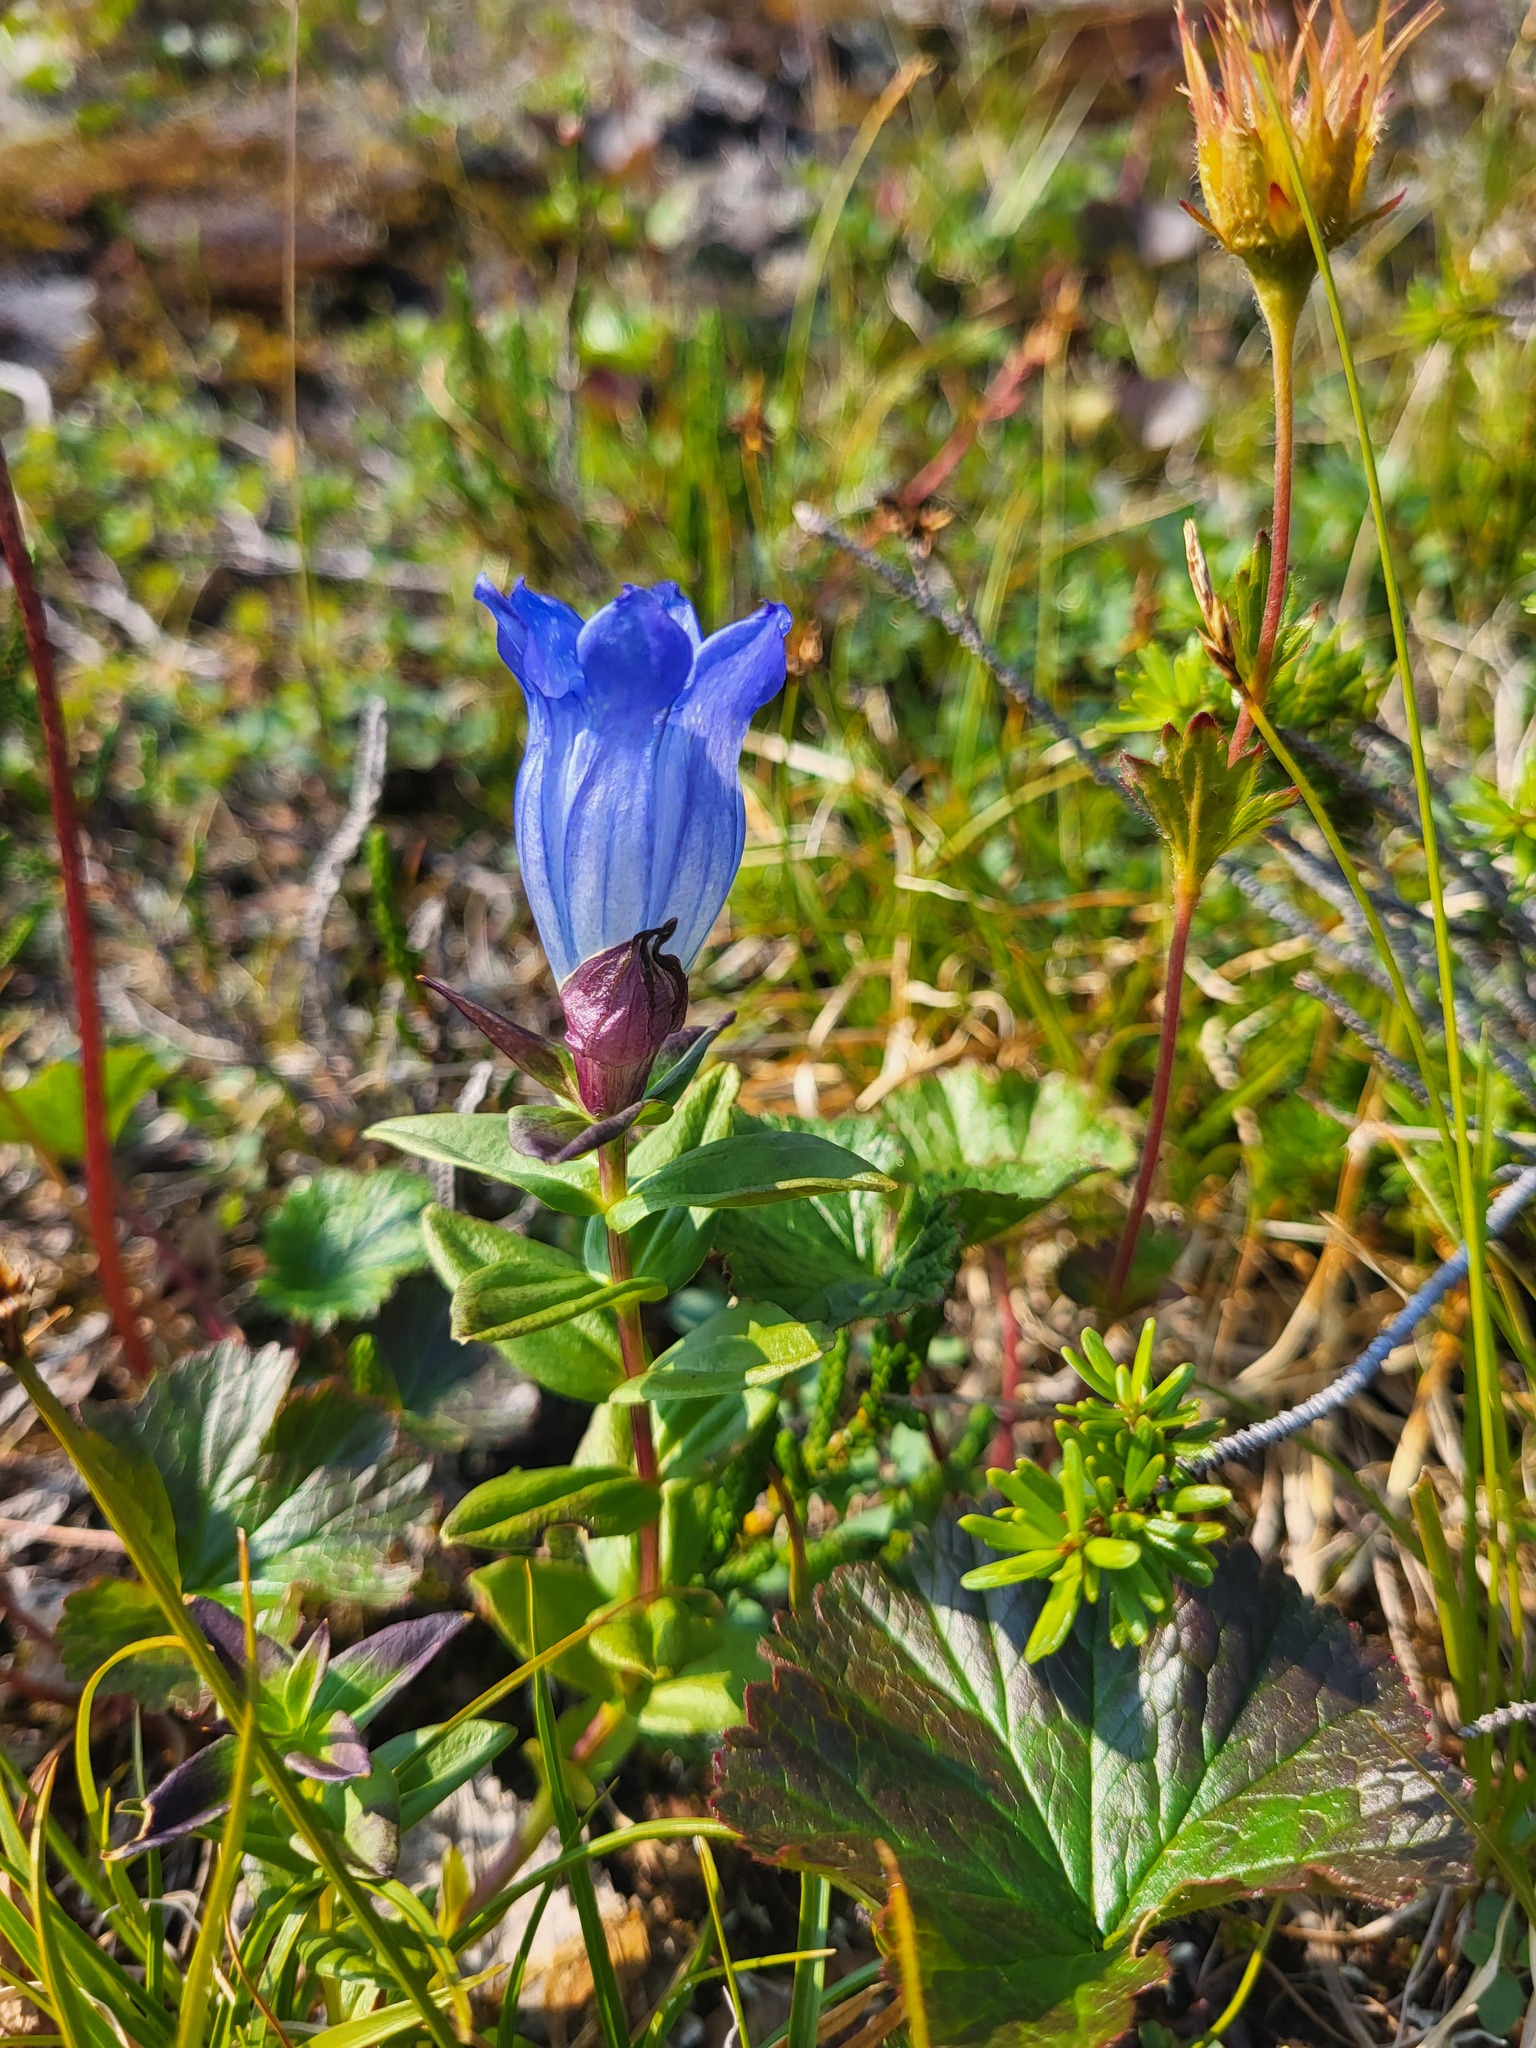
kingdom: Plantae
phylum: Tracheophyta
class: Magnoliopsida
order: Gentianales
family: Gentianaceae
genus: Gentiana
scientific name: Gentiana platypetala
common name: Broad-petalled gentian
